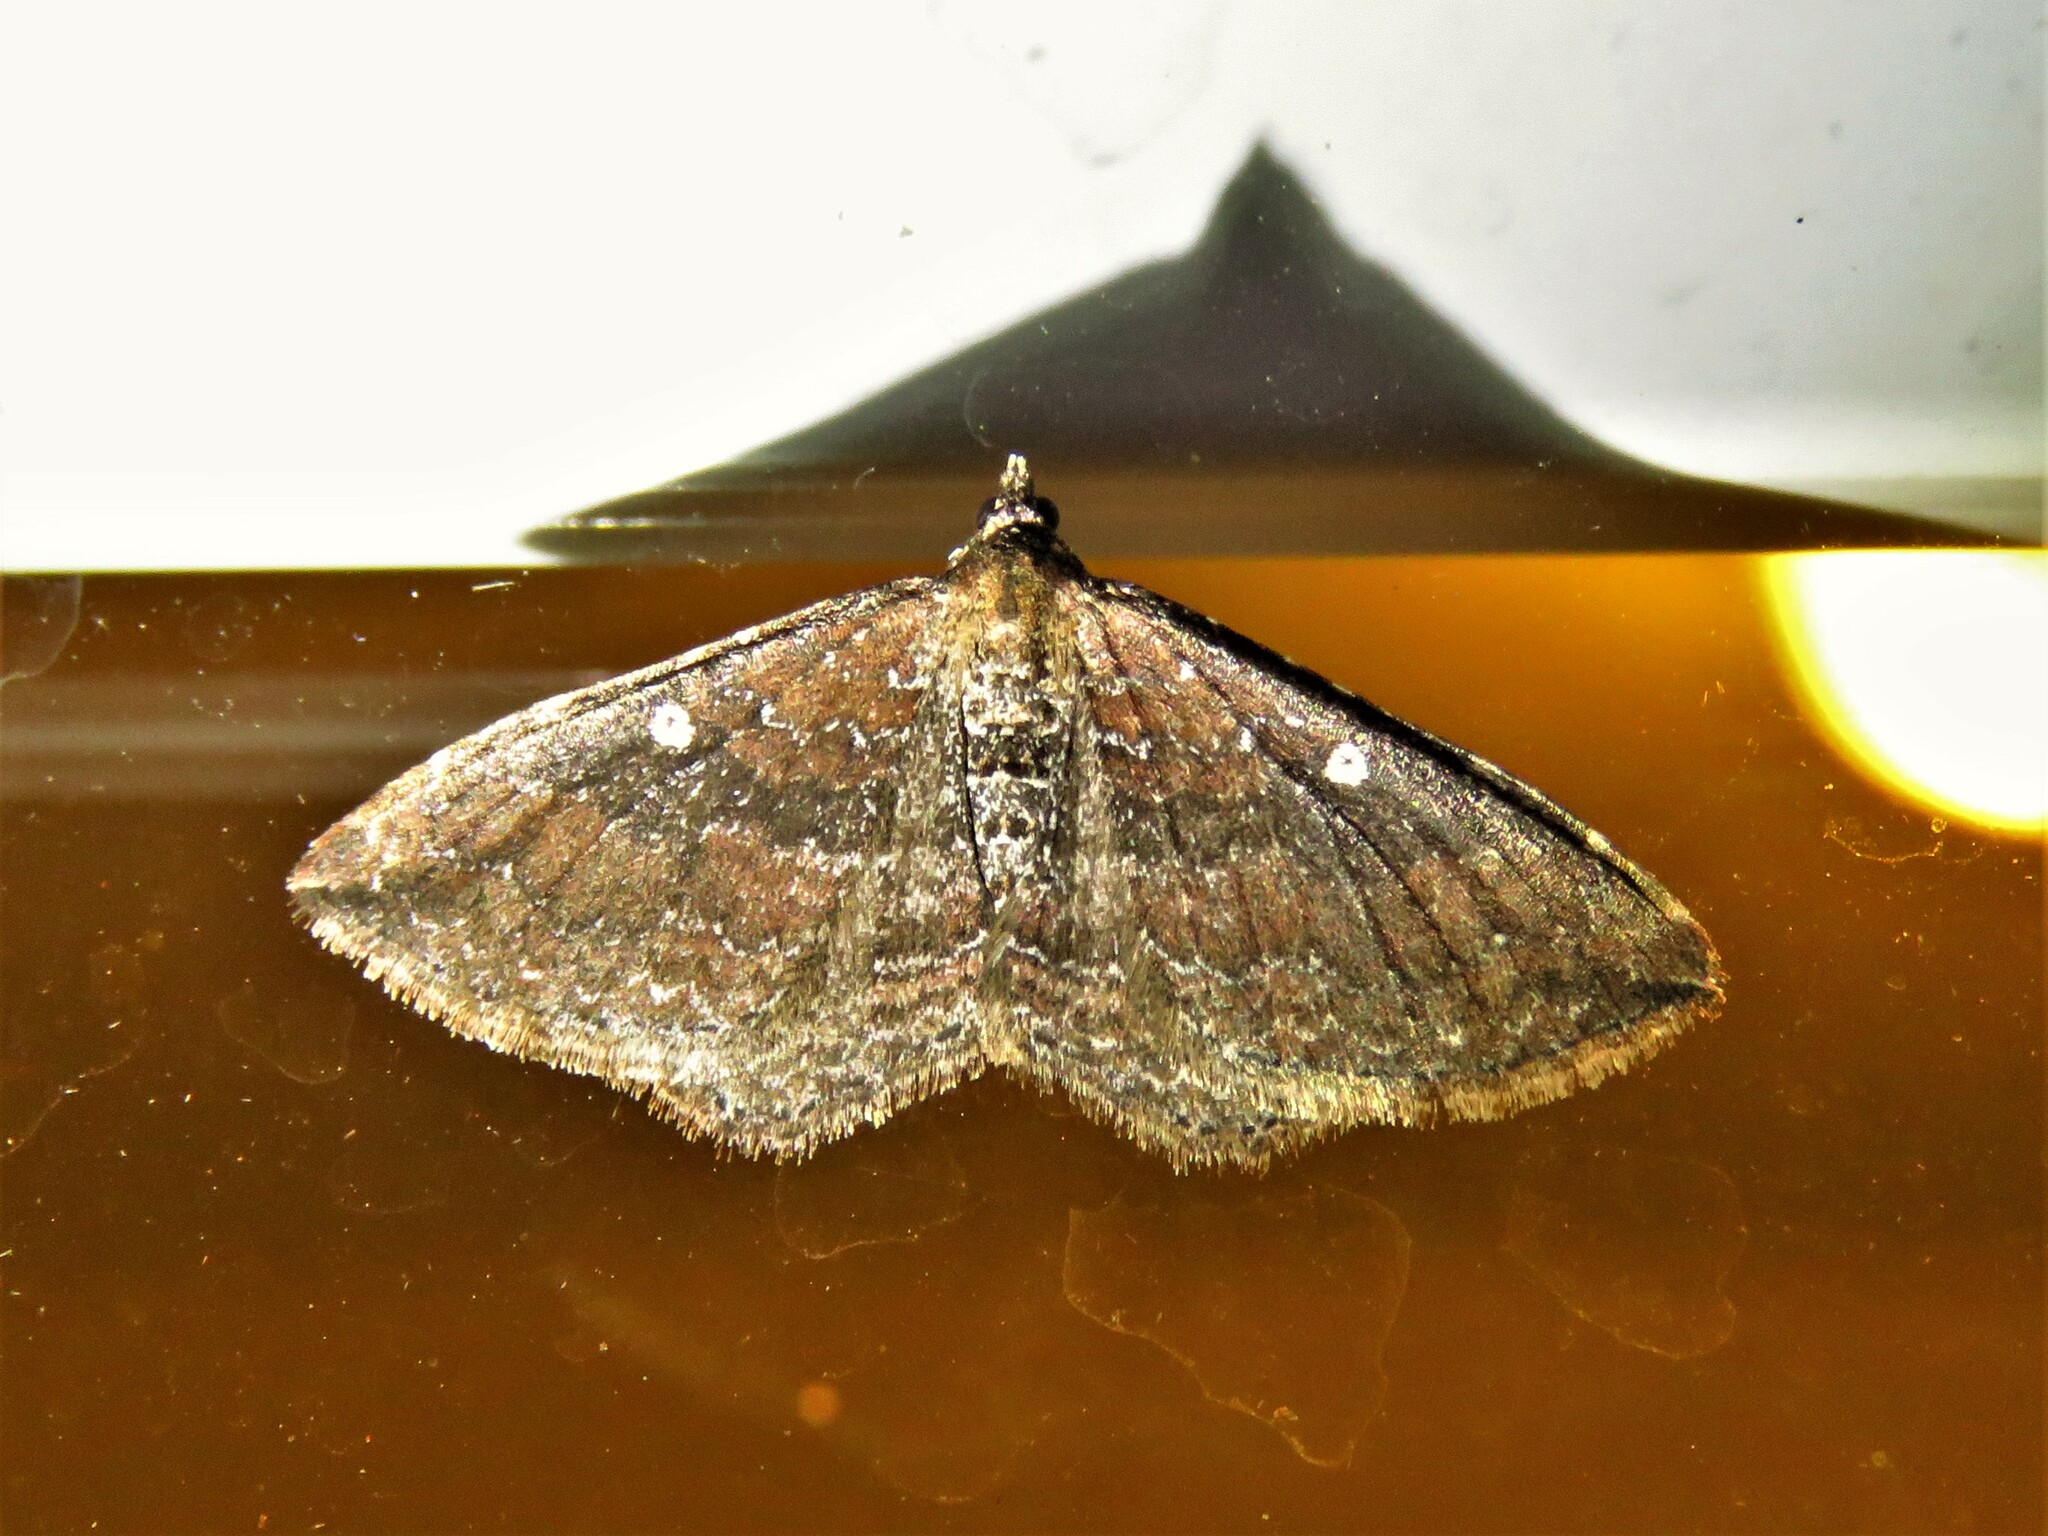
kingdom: Animalia
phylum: Arthropoda
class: Insecta
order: Lepidoptera
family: Geometridae
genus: Orthonama
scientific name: Orthonama obstipata
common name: The gem
